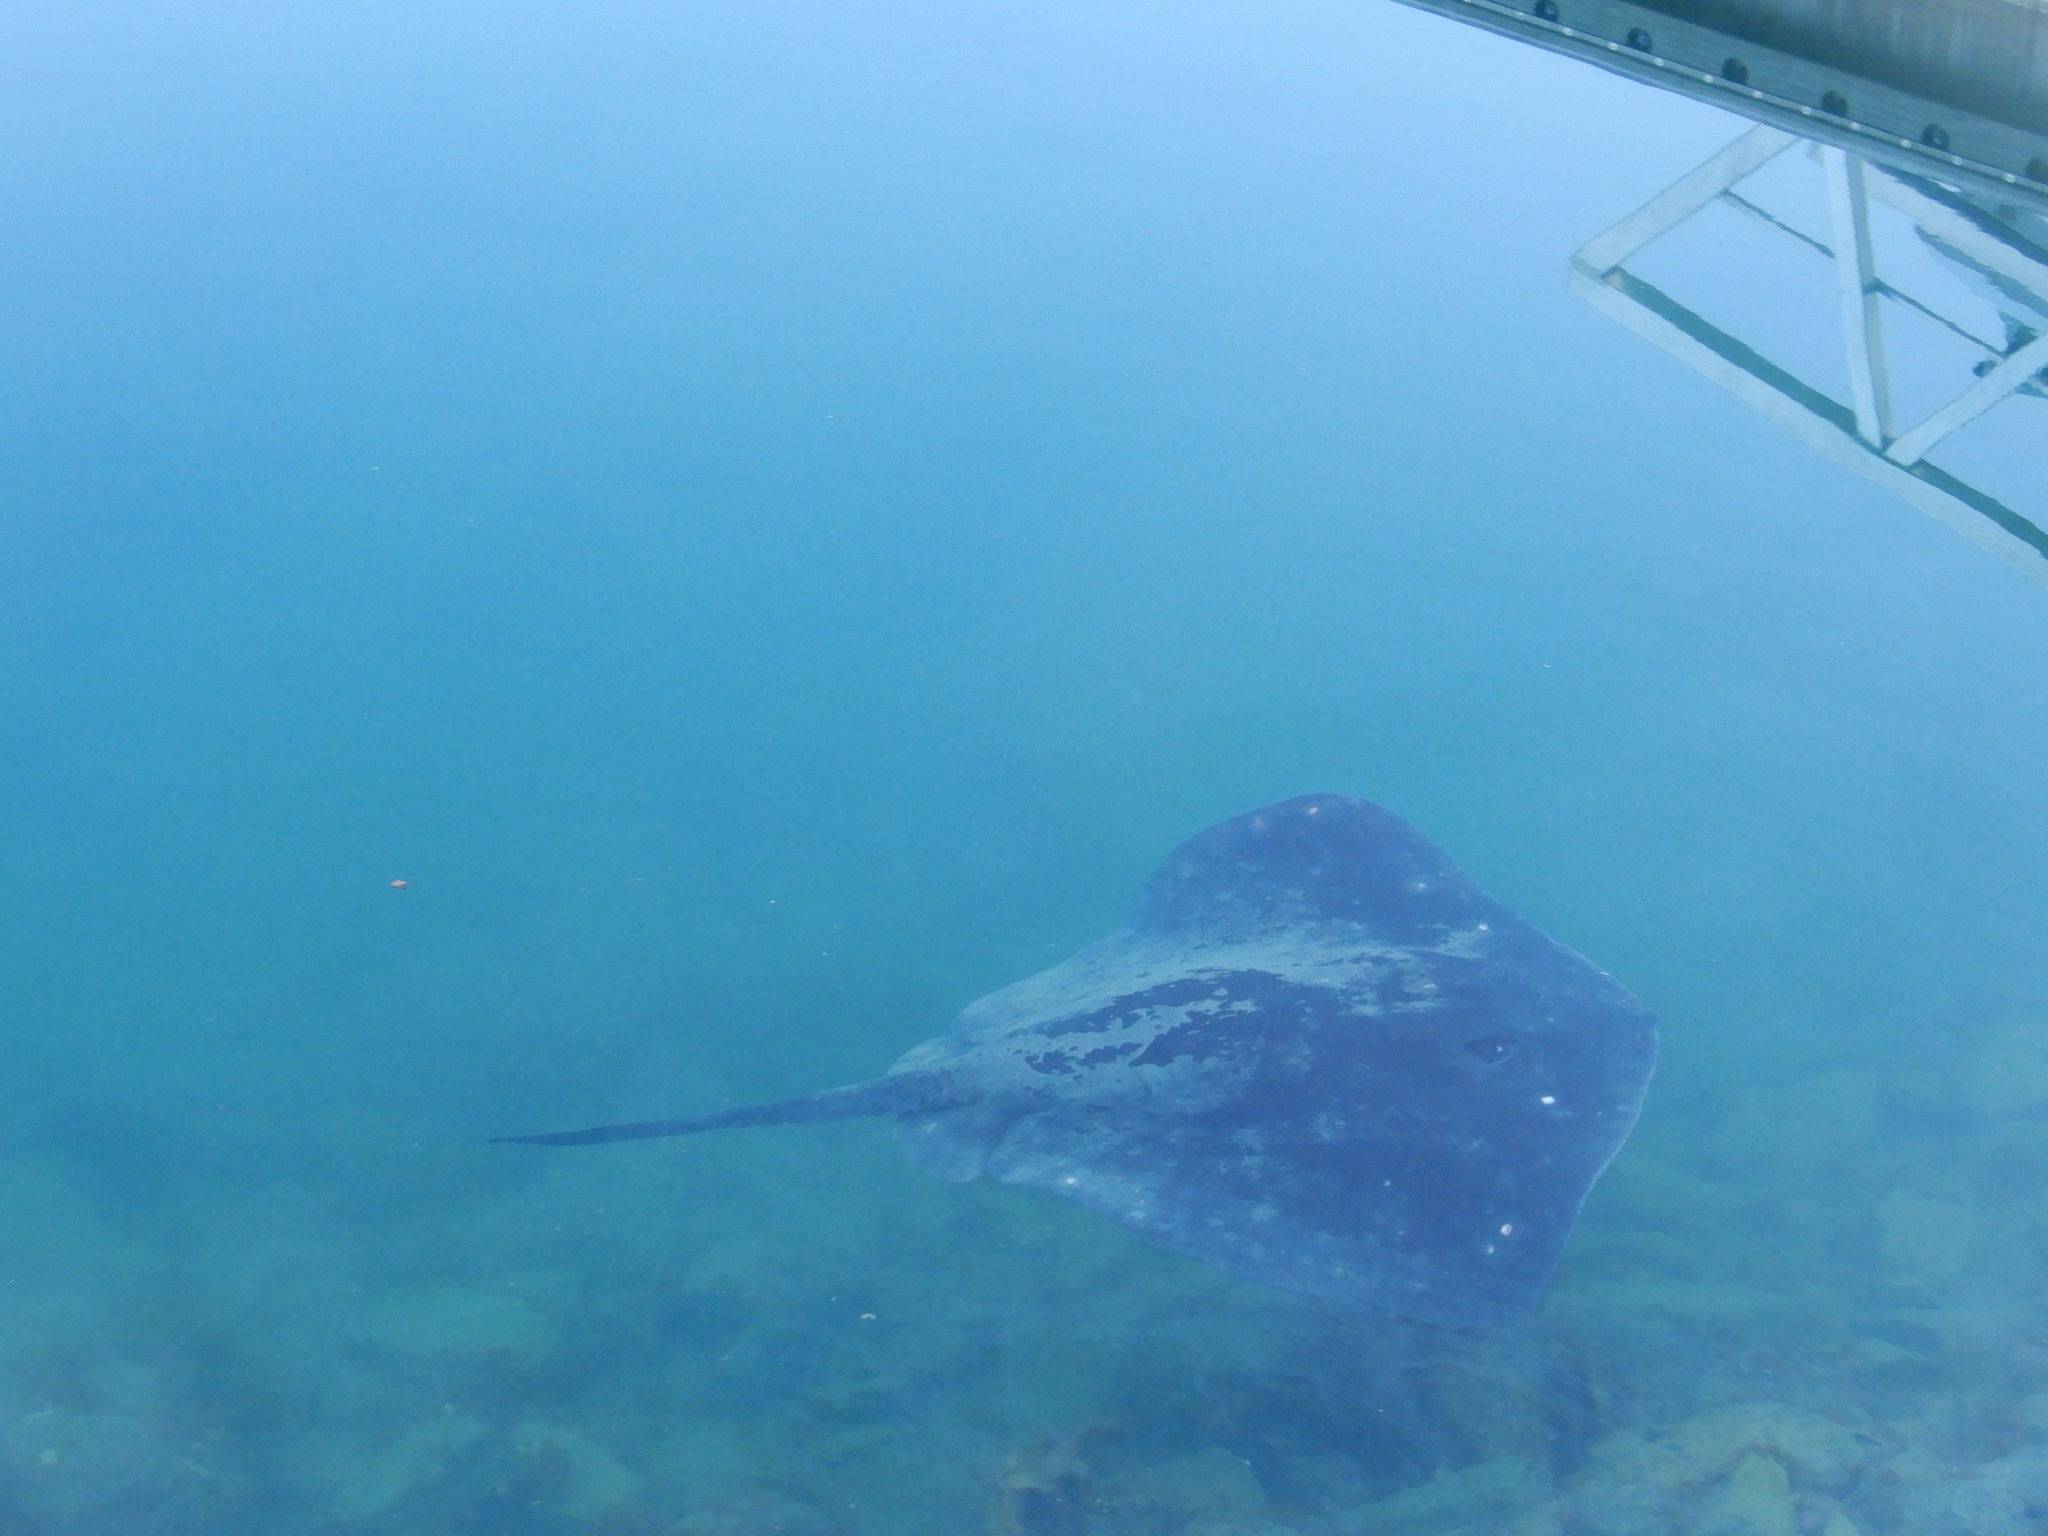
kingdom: Animalia
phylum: Chordata
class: Elasmobranchii
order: Myliobatiformes
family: Dasyatidae
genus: Bathytoshia
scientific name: Bathytoshia brevicaudata
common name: Short-tail stingray
